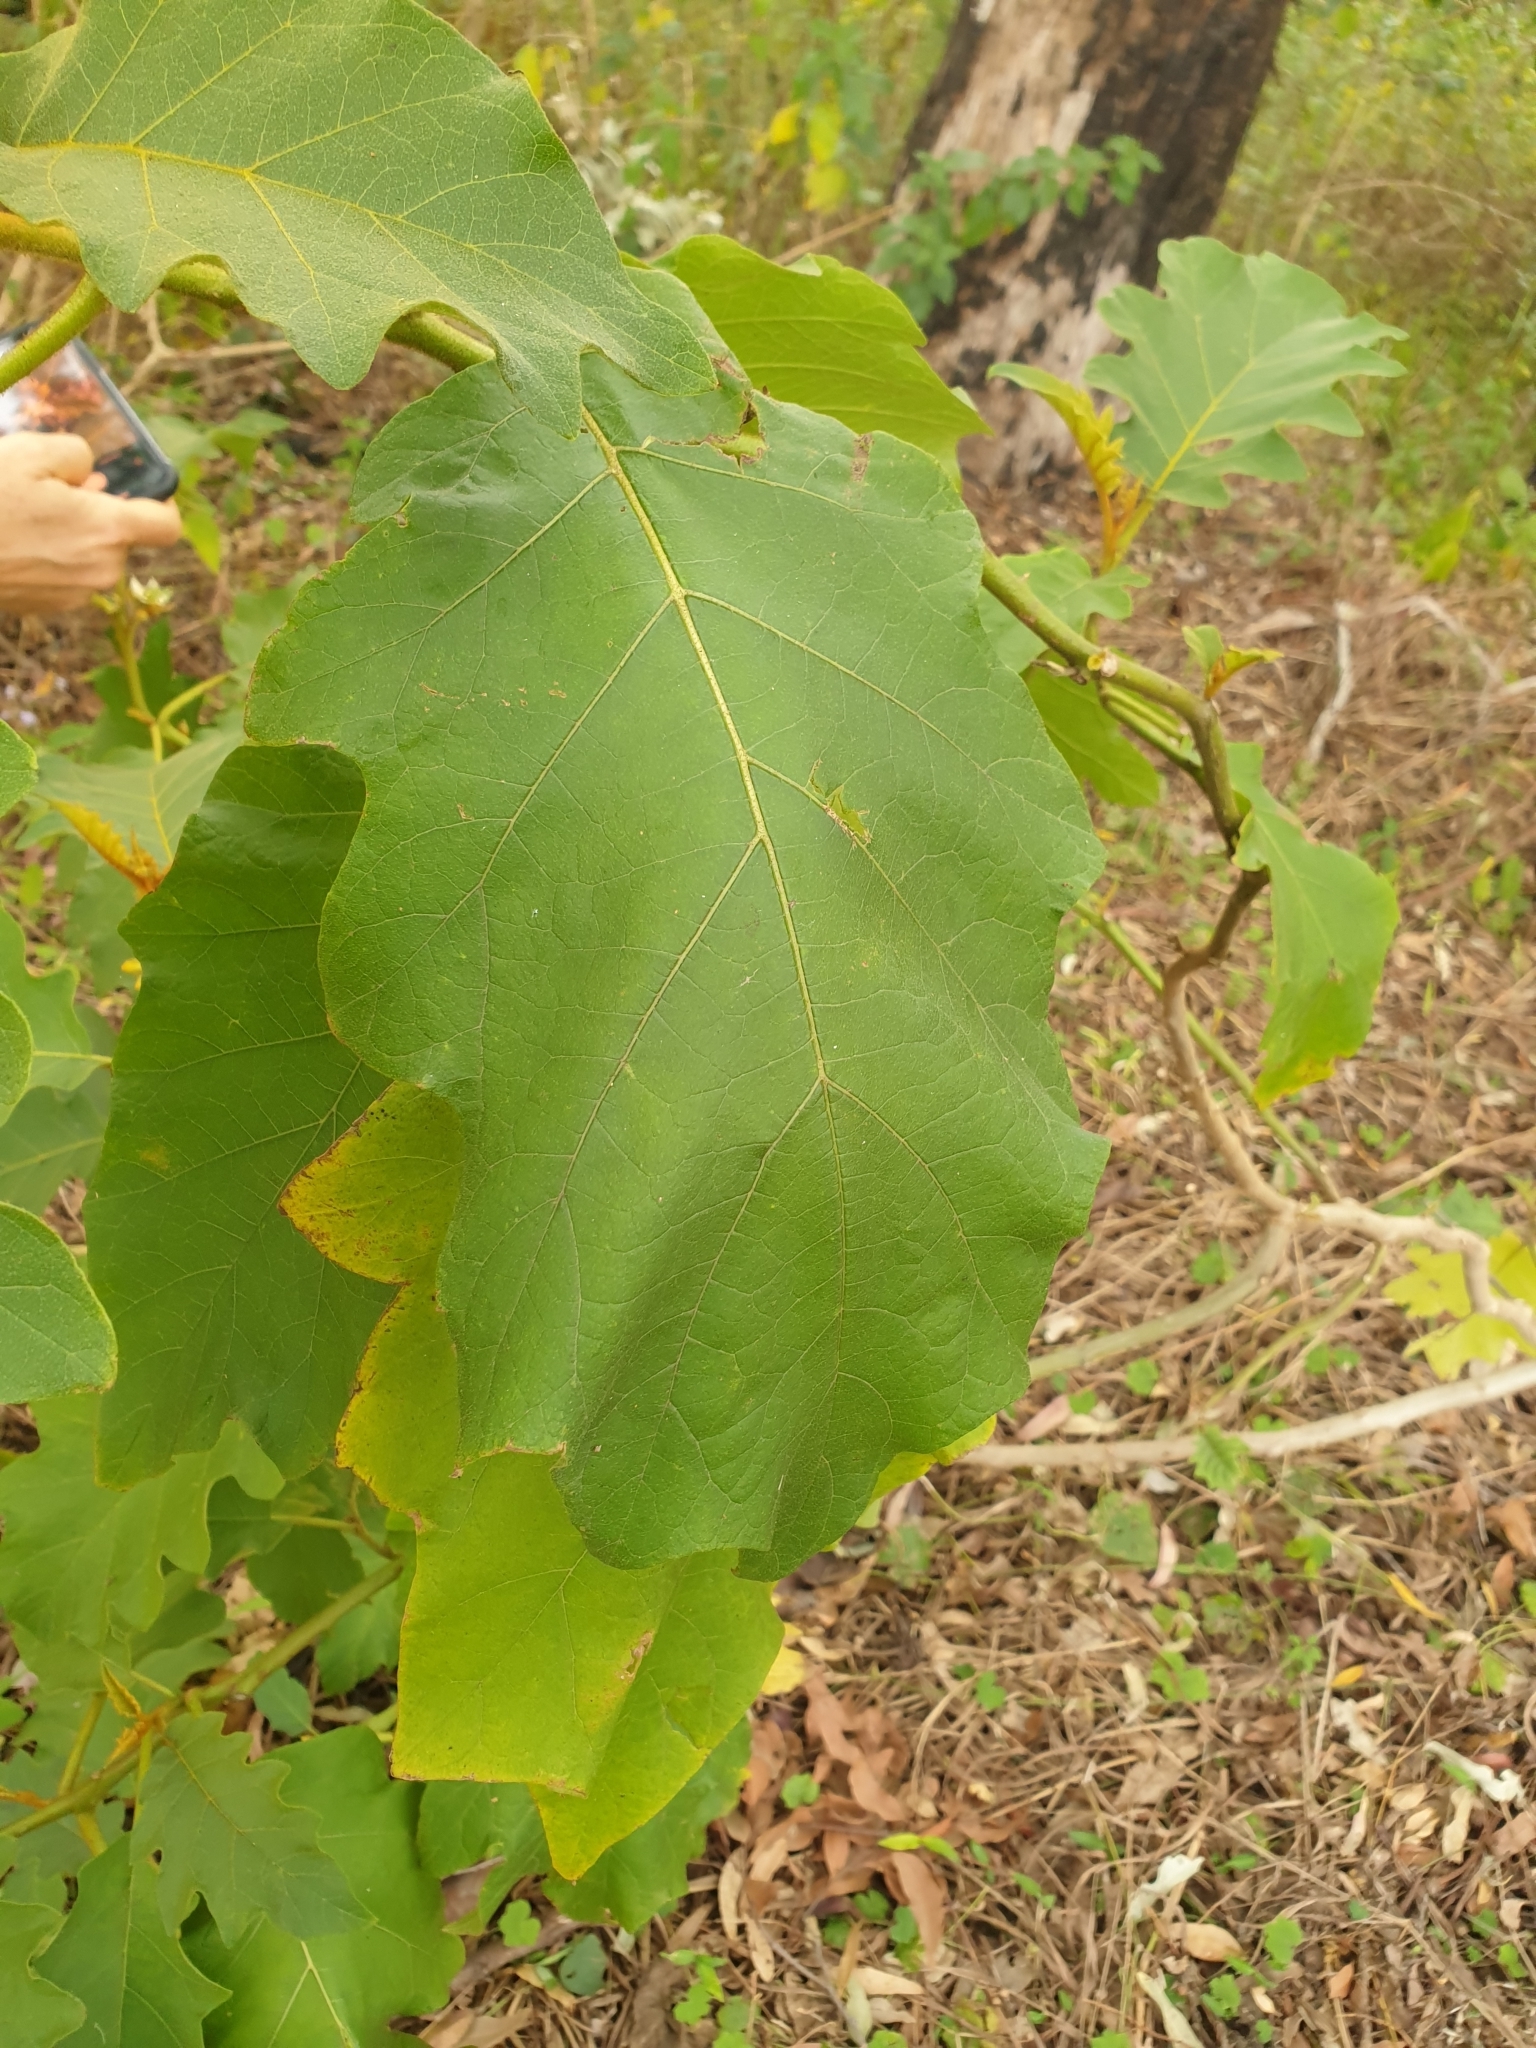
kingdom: Plantae
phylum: Tracheophyta
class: Magnoliopsida
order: Solanales
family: Solanaceae
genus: Solanum
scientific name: Solanum chrysotrichum
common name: Nightshade
